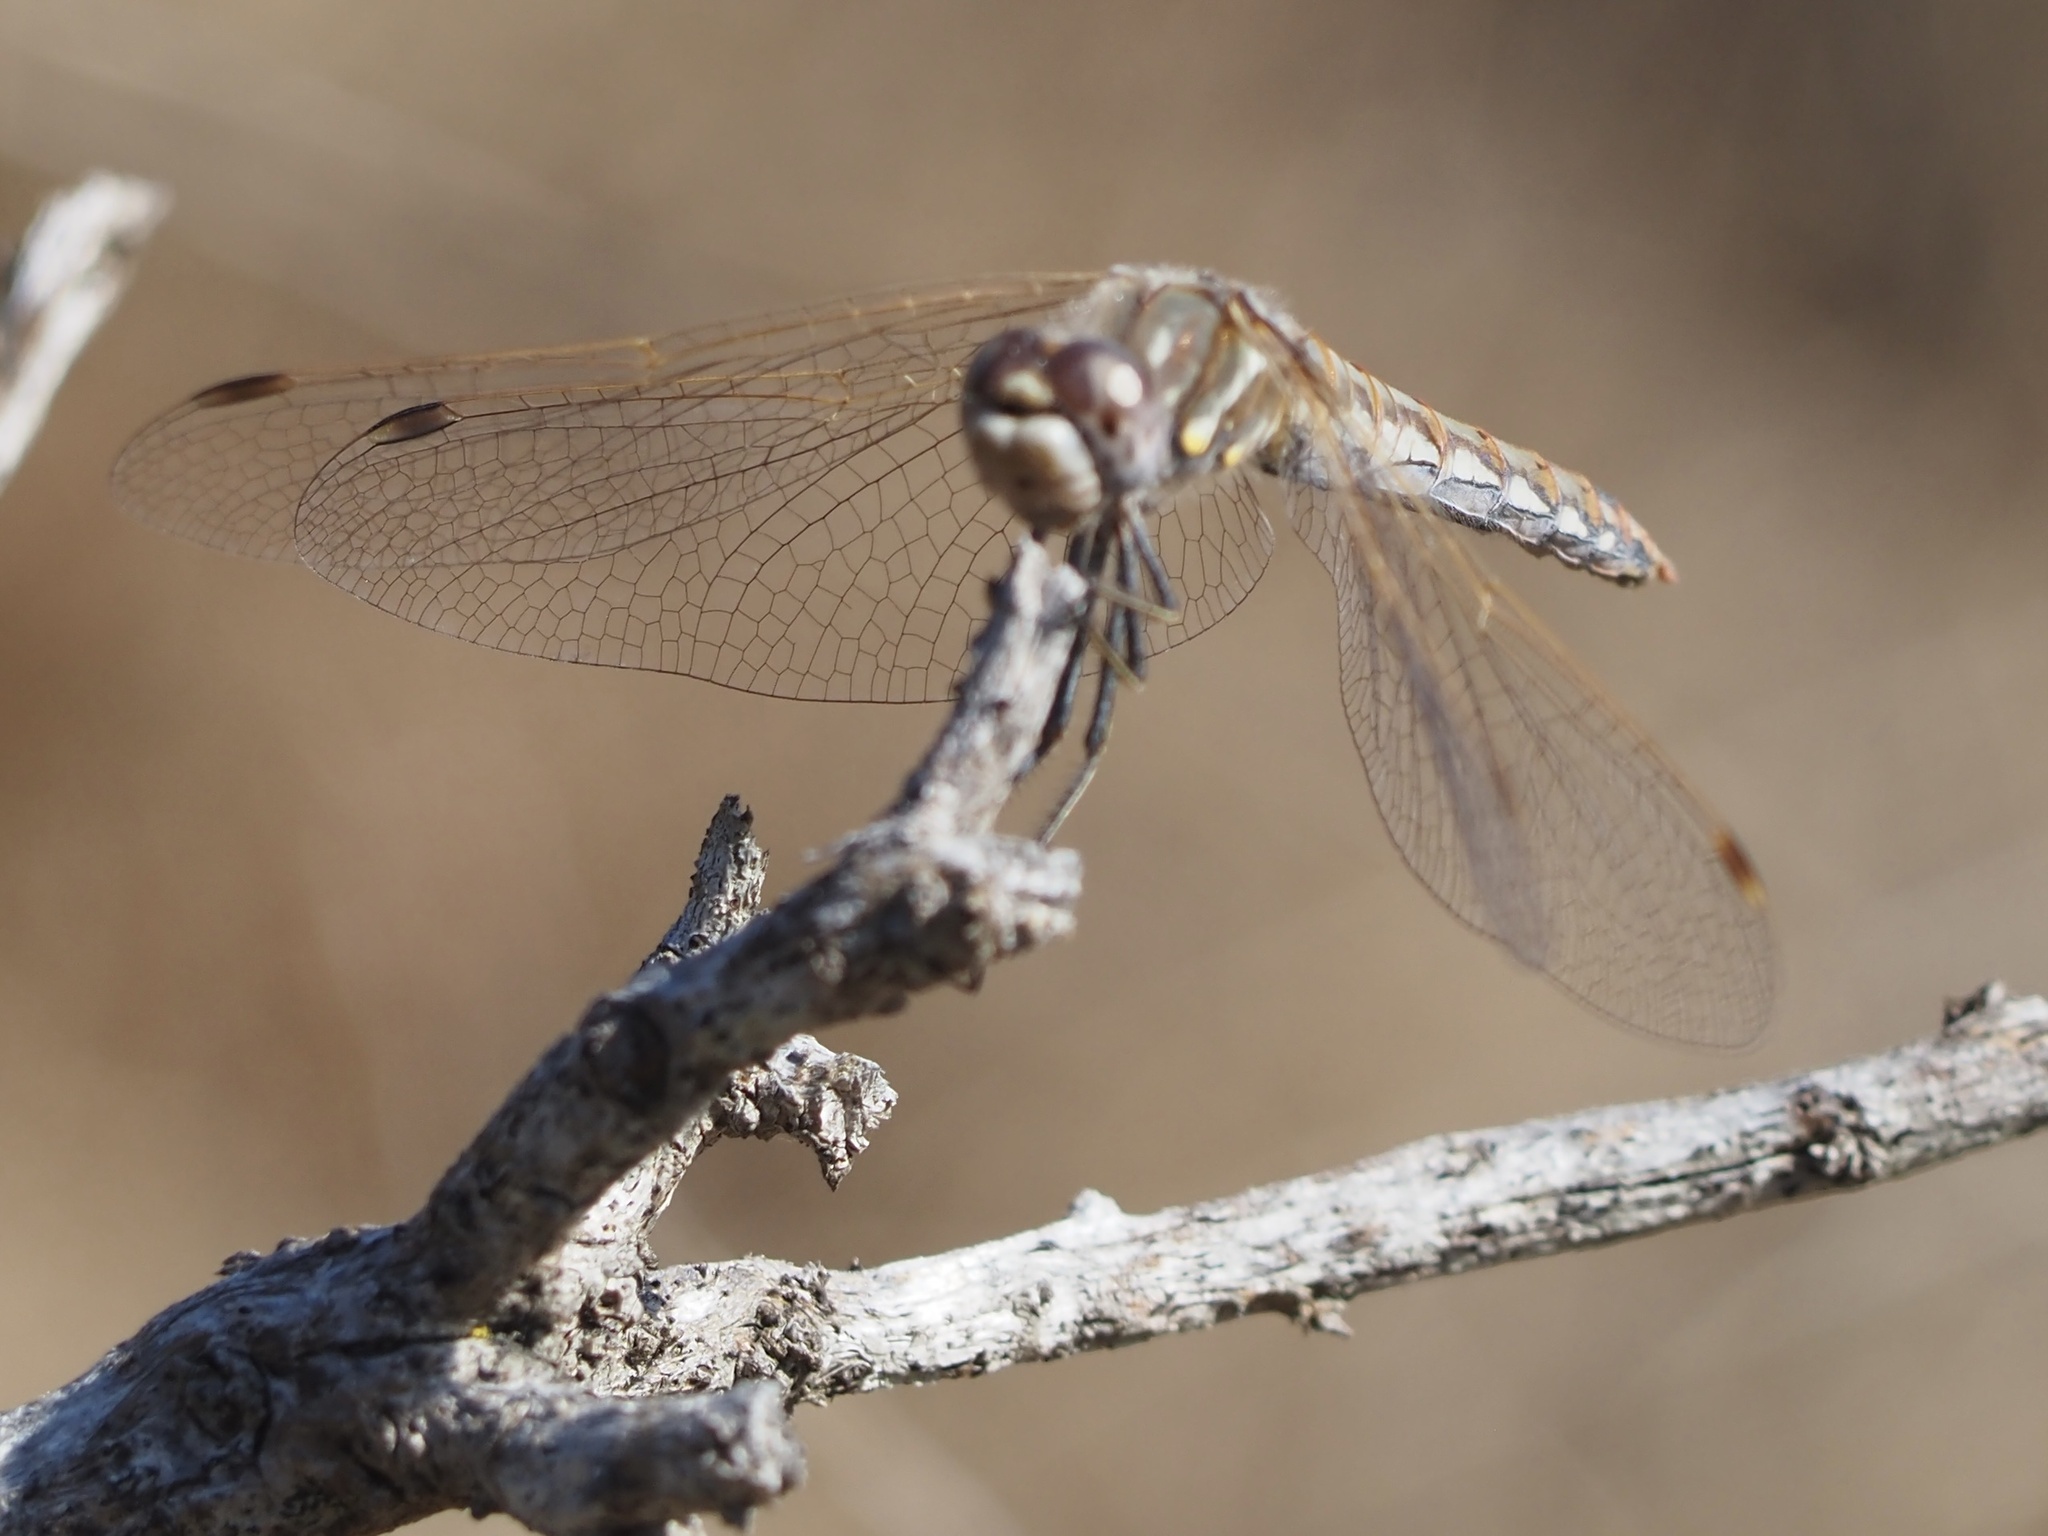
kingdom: Animalia
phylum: Arthropoda
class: Insecta
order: Odonata
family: Libellulidae
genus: Sympetrum
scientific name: Sympetrum corruptum
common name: Variegated meadowhawk
